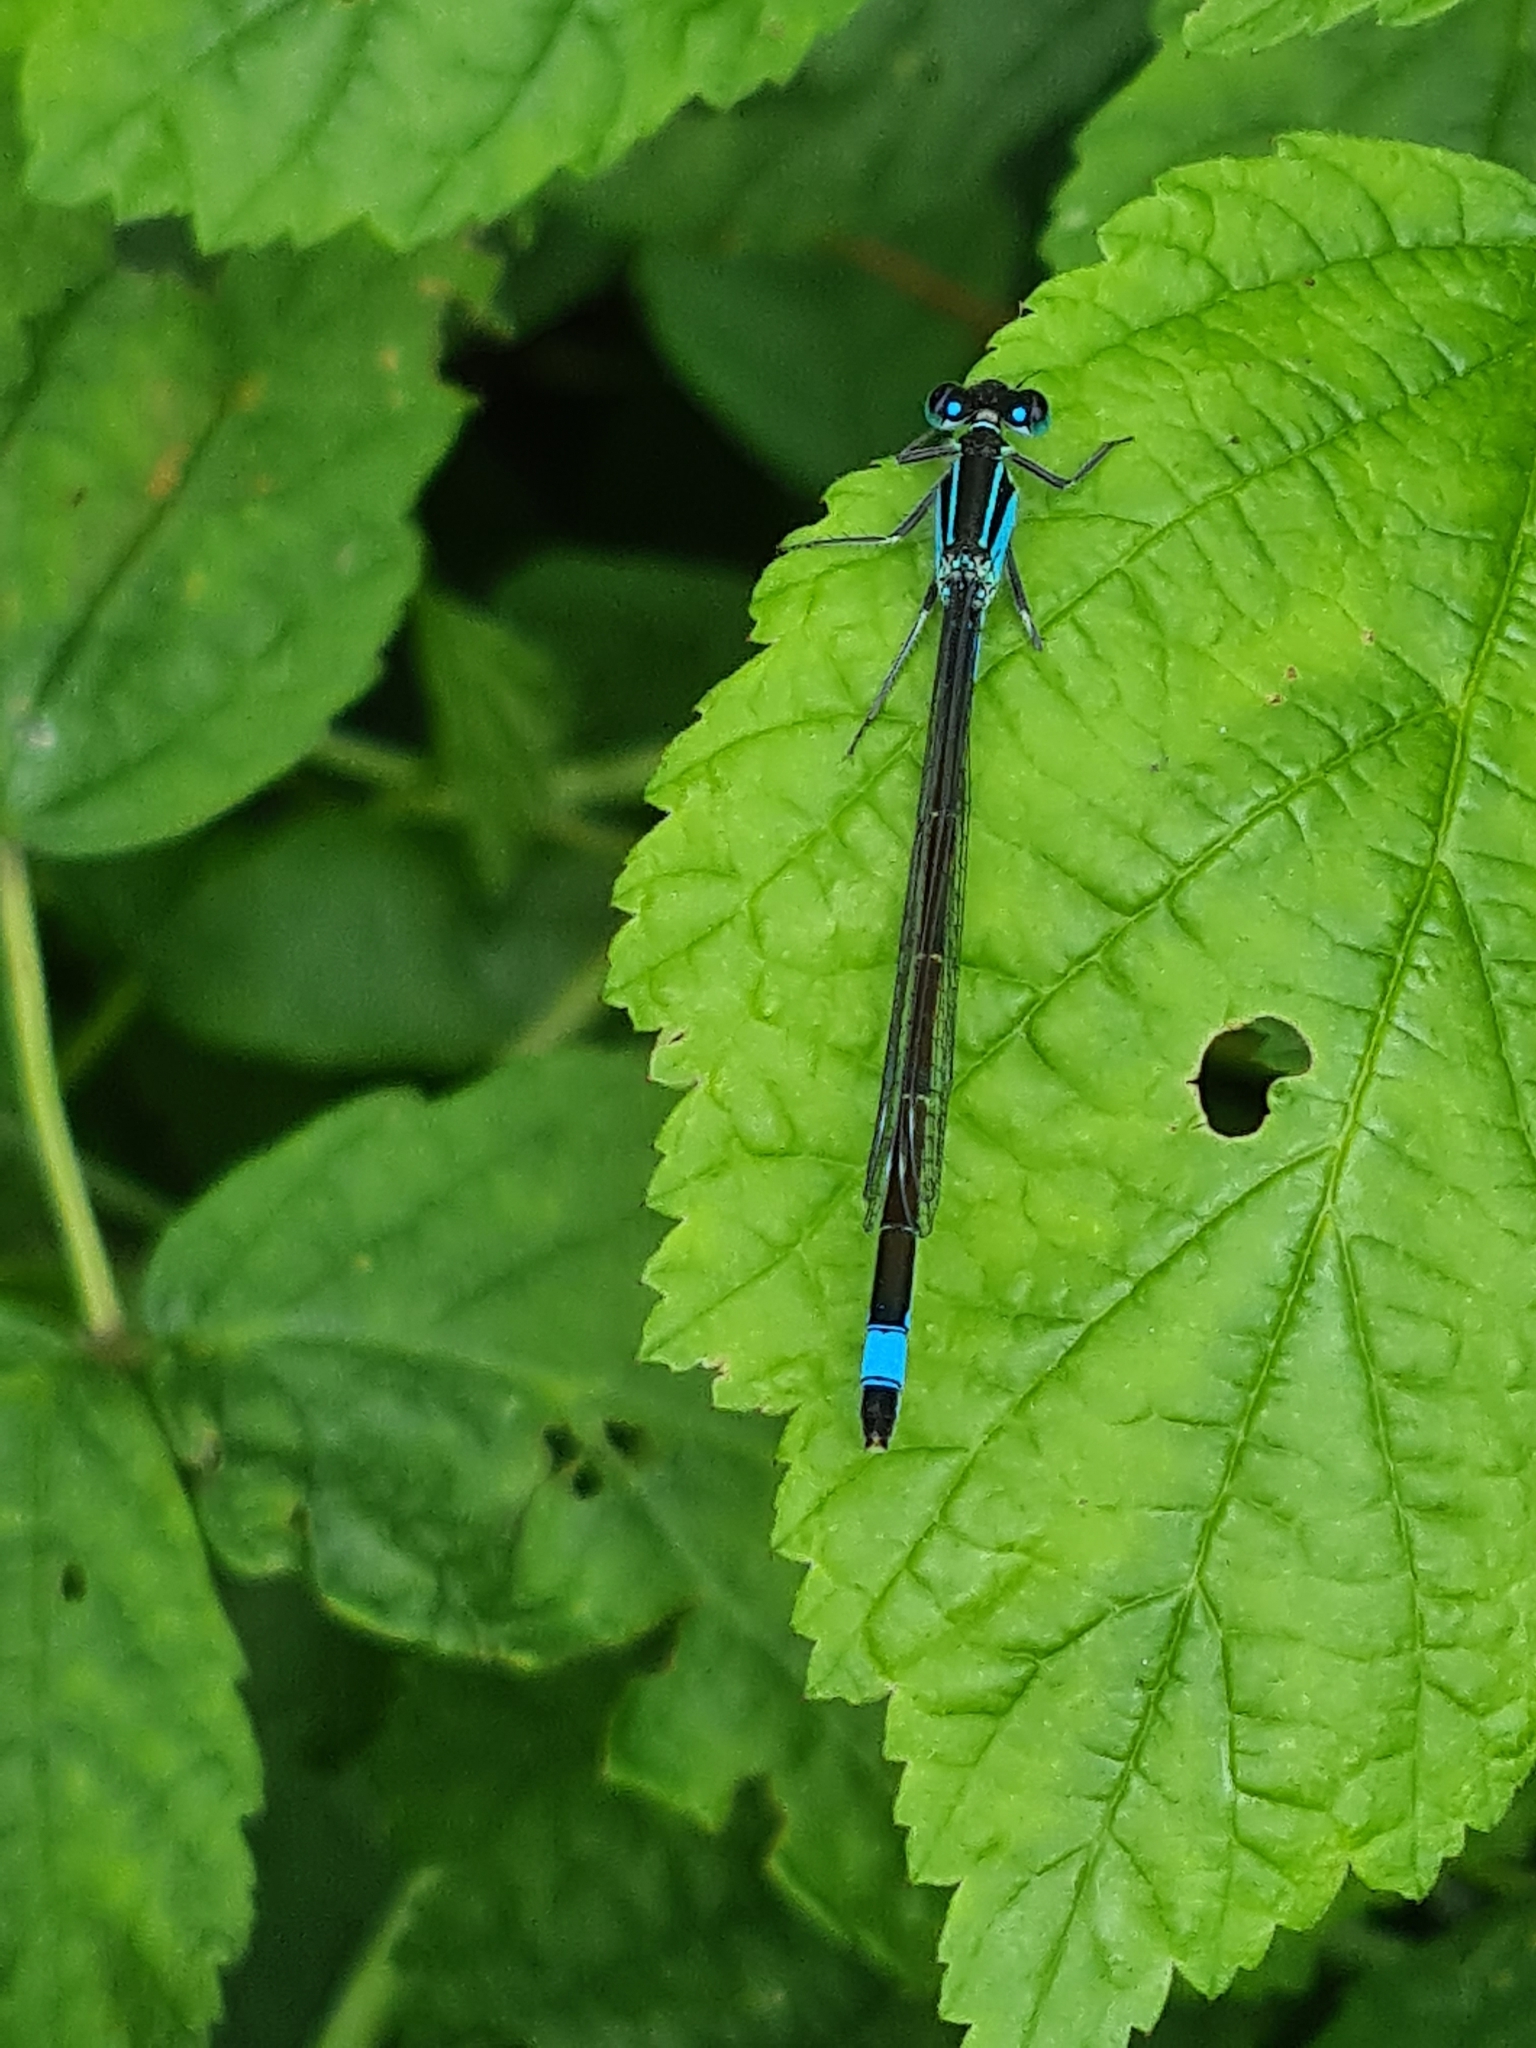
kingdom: Animalia
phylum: Arthropoda
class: Insecta
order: Odonata
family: Coenagrionidae
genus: Ischnura
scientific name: Ischnura elegans
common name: Blue-tailed damselfly
